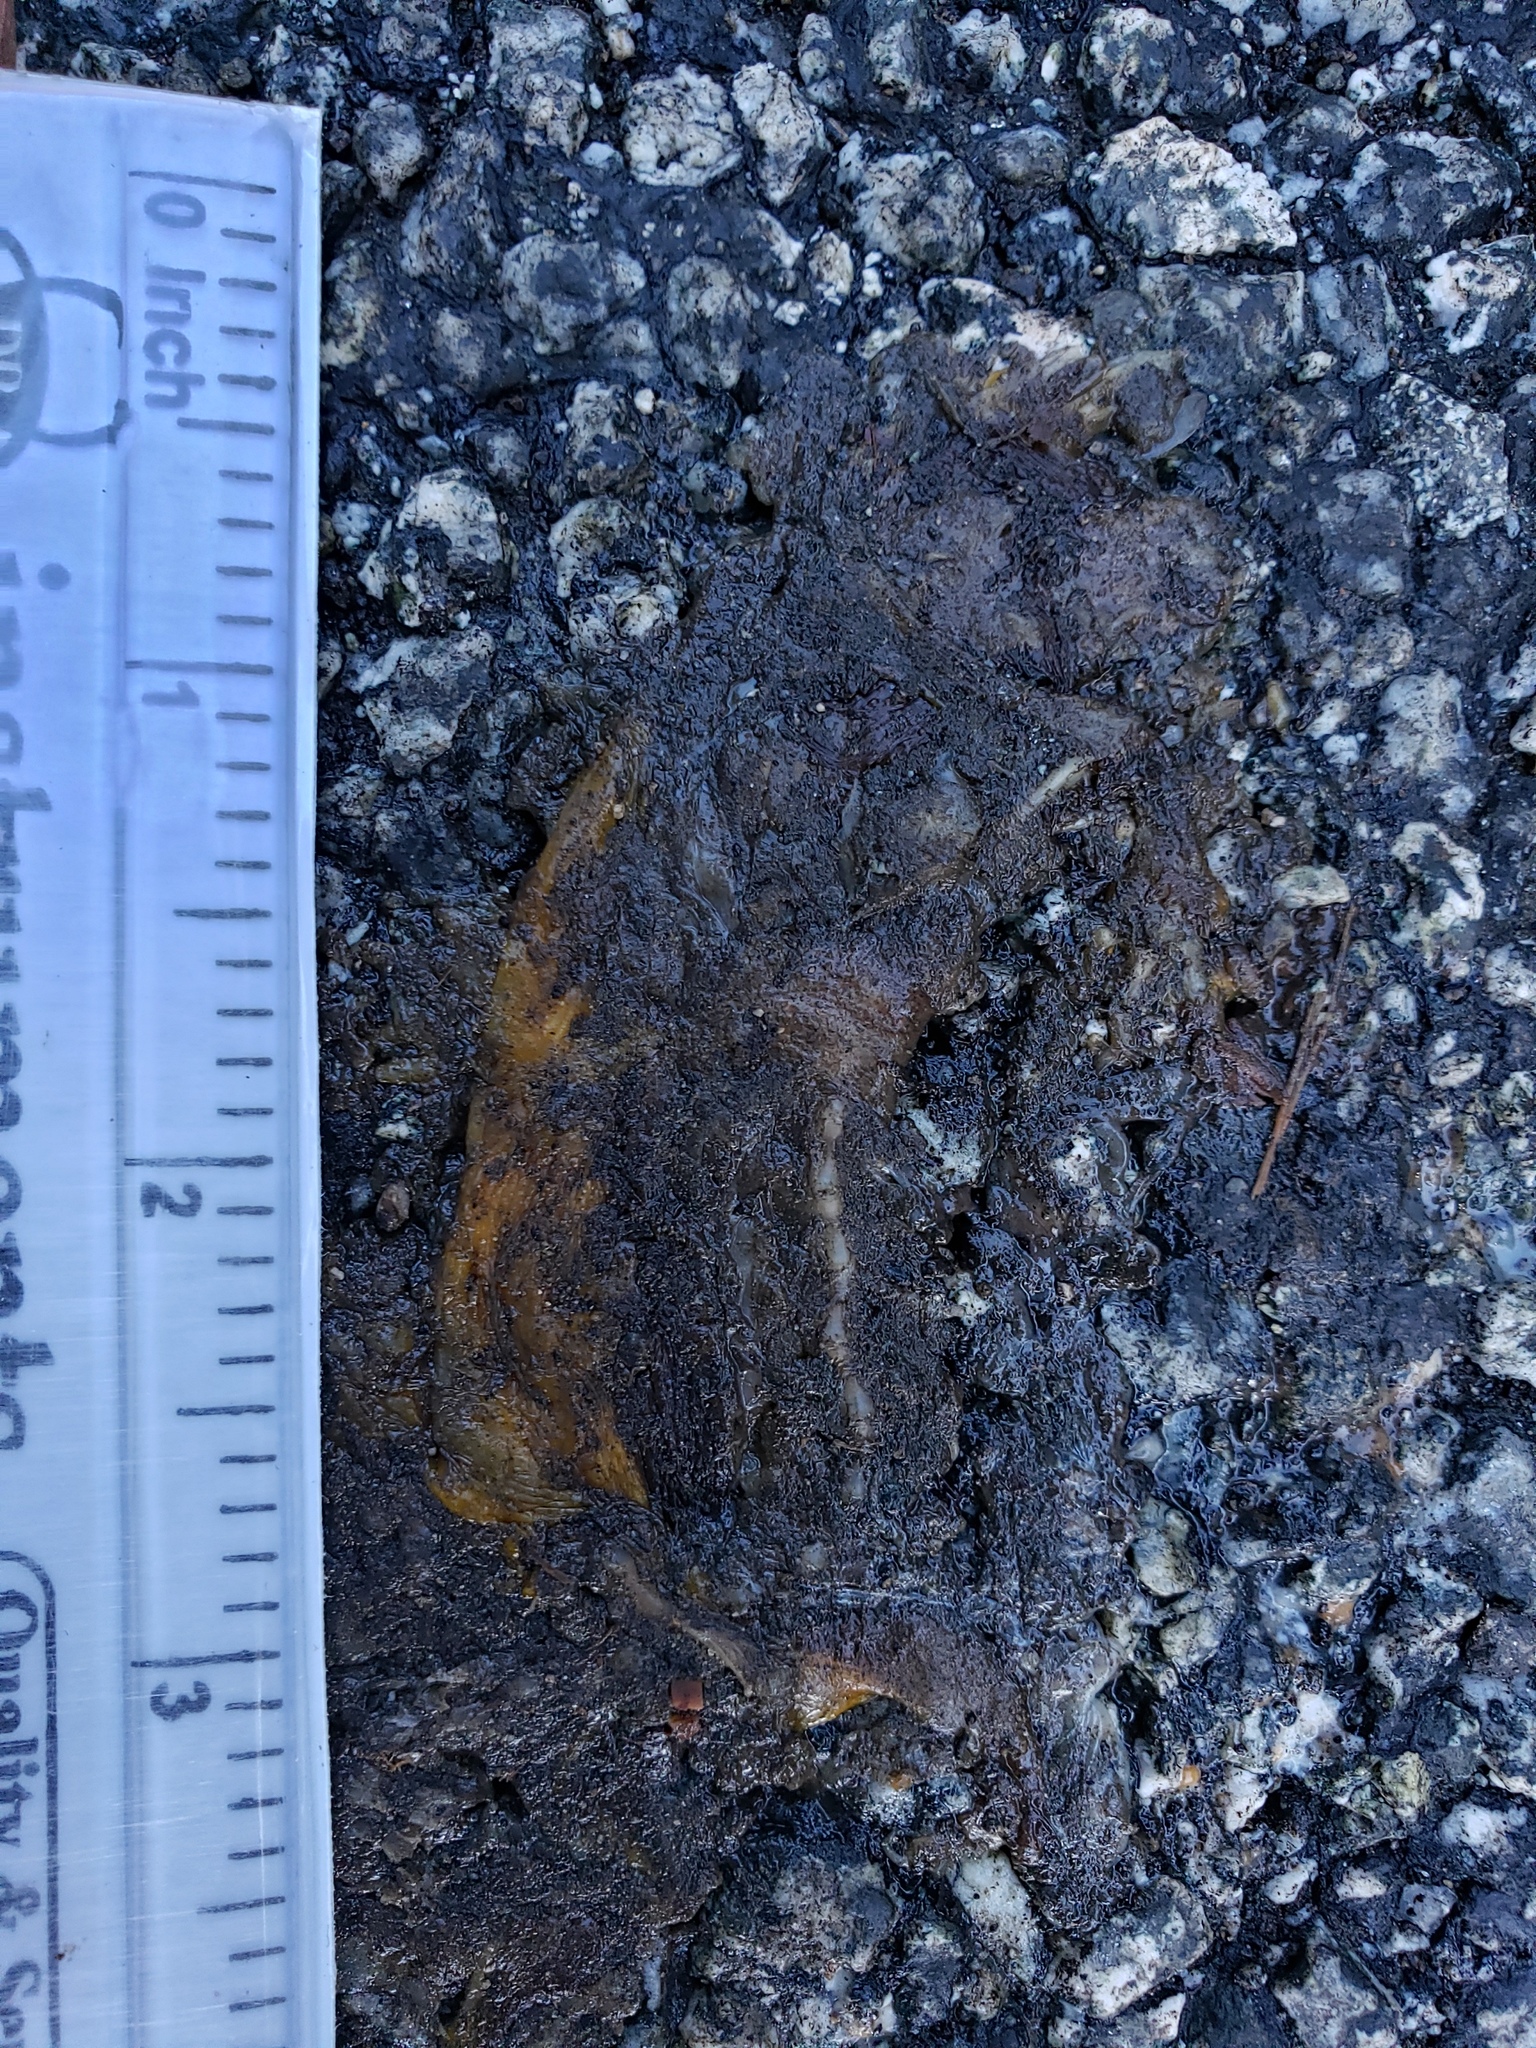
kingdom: Animalia
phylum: Chordata
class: Amphibia
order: Caudata
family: Salamandridae
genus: Taricha
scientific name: Taricha
